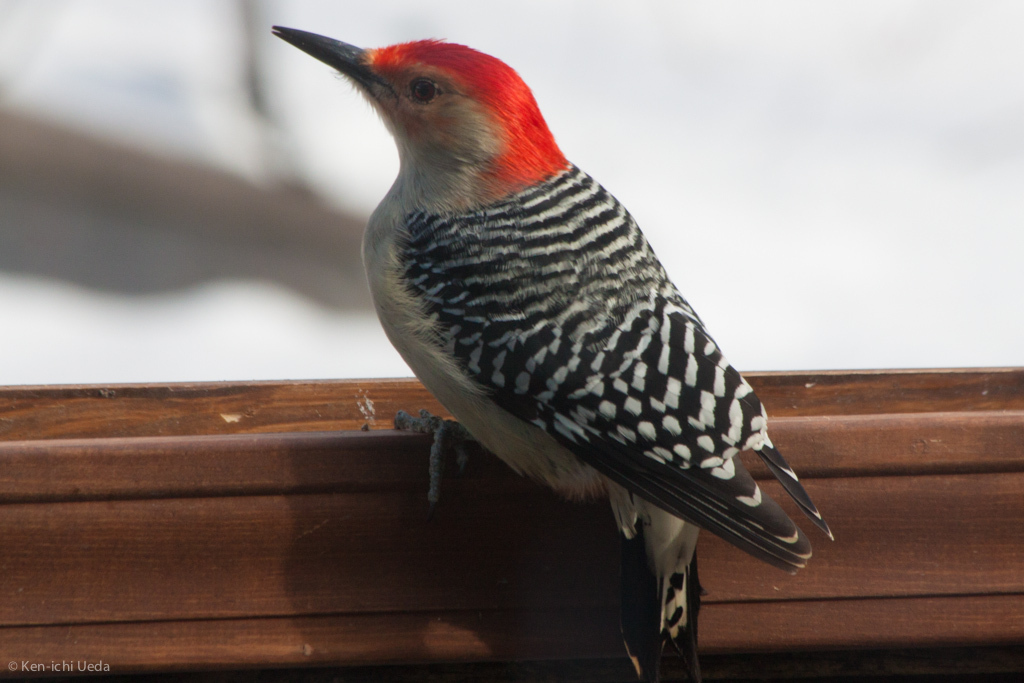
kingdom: Animalia
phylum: Chordata
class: Aves
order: Piciformes
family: Picidae
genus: Melanerpes
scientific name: Melanerpes carolinus
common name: Red-bellied woodpecker
